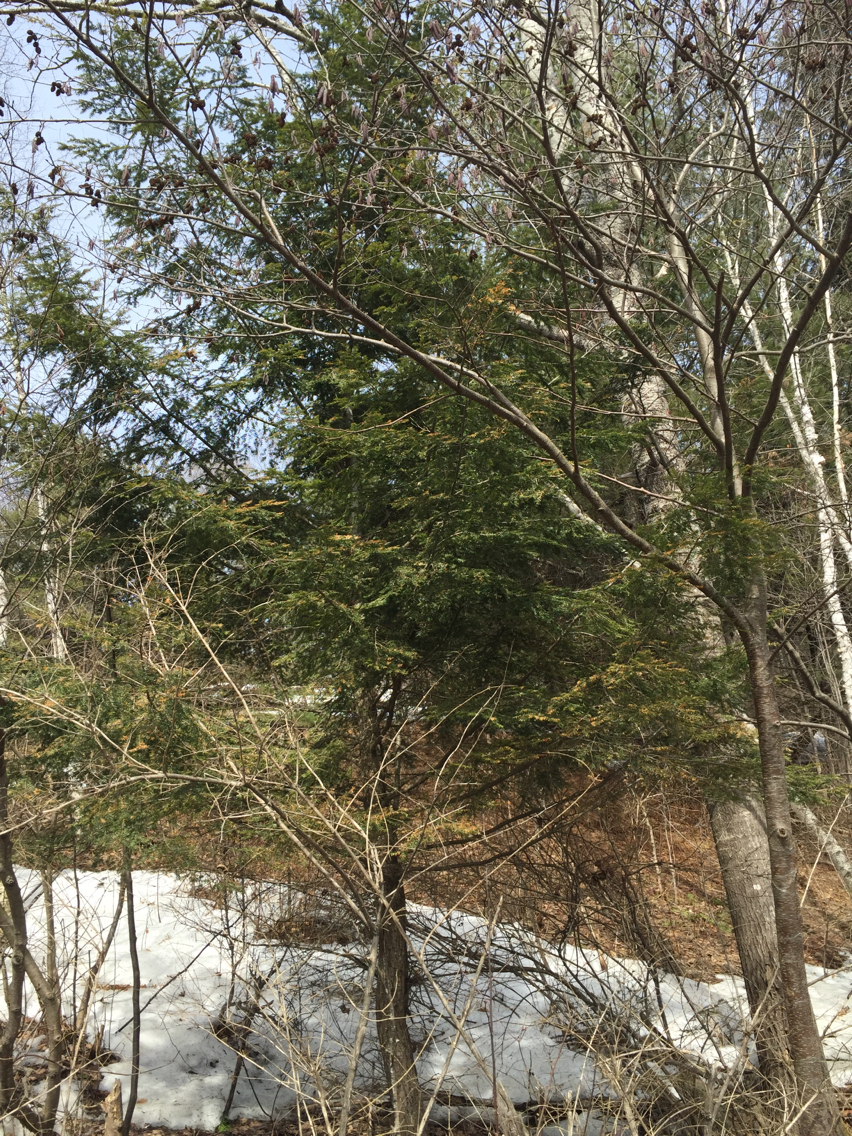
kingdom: Plantae
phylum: Tracheophyta
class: Pinopsida
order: Pinales
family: Pinaceae
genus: Tsuga
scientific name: Tsuga canadensis
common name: Eastern hemlock
